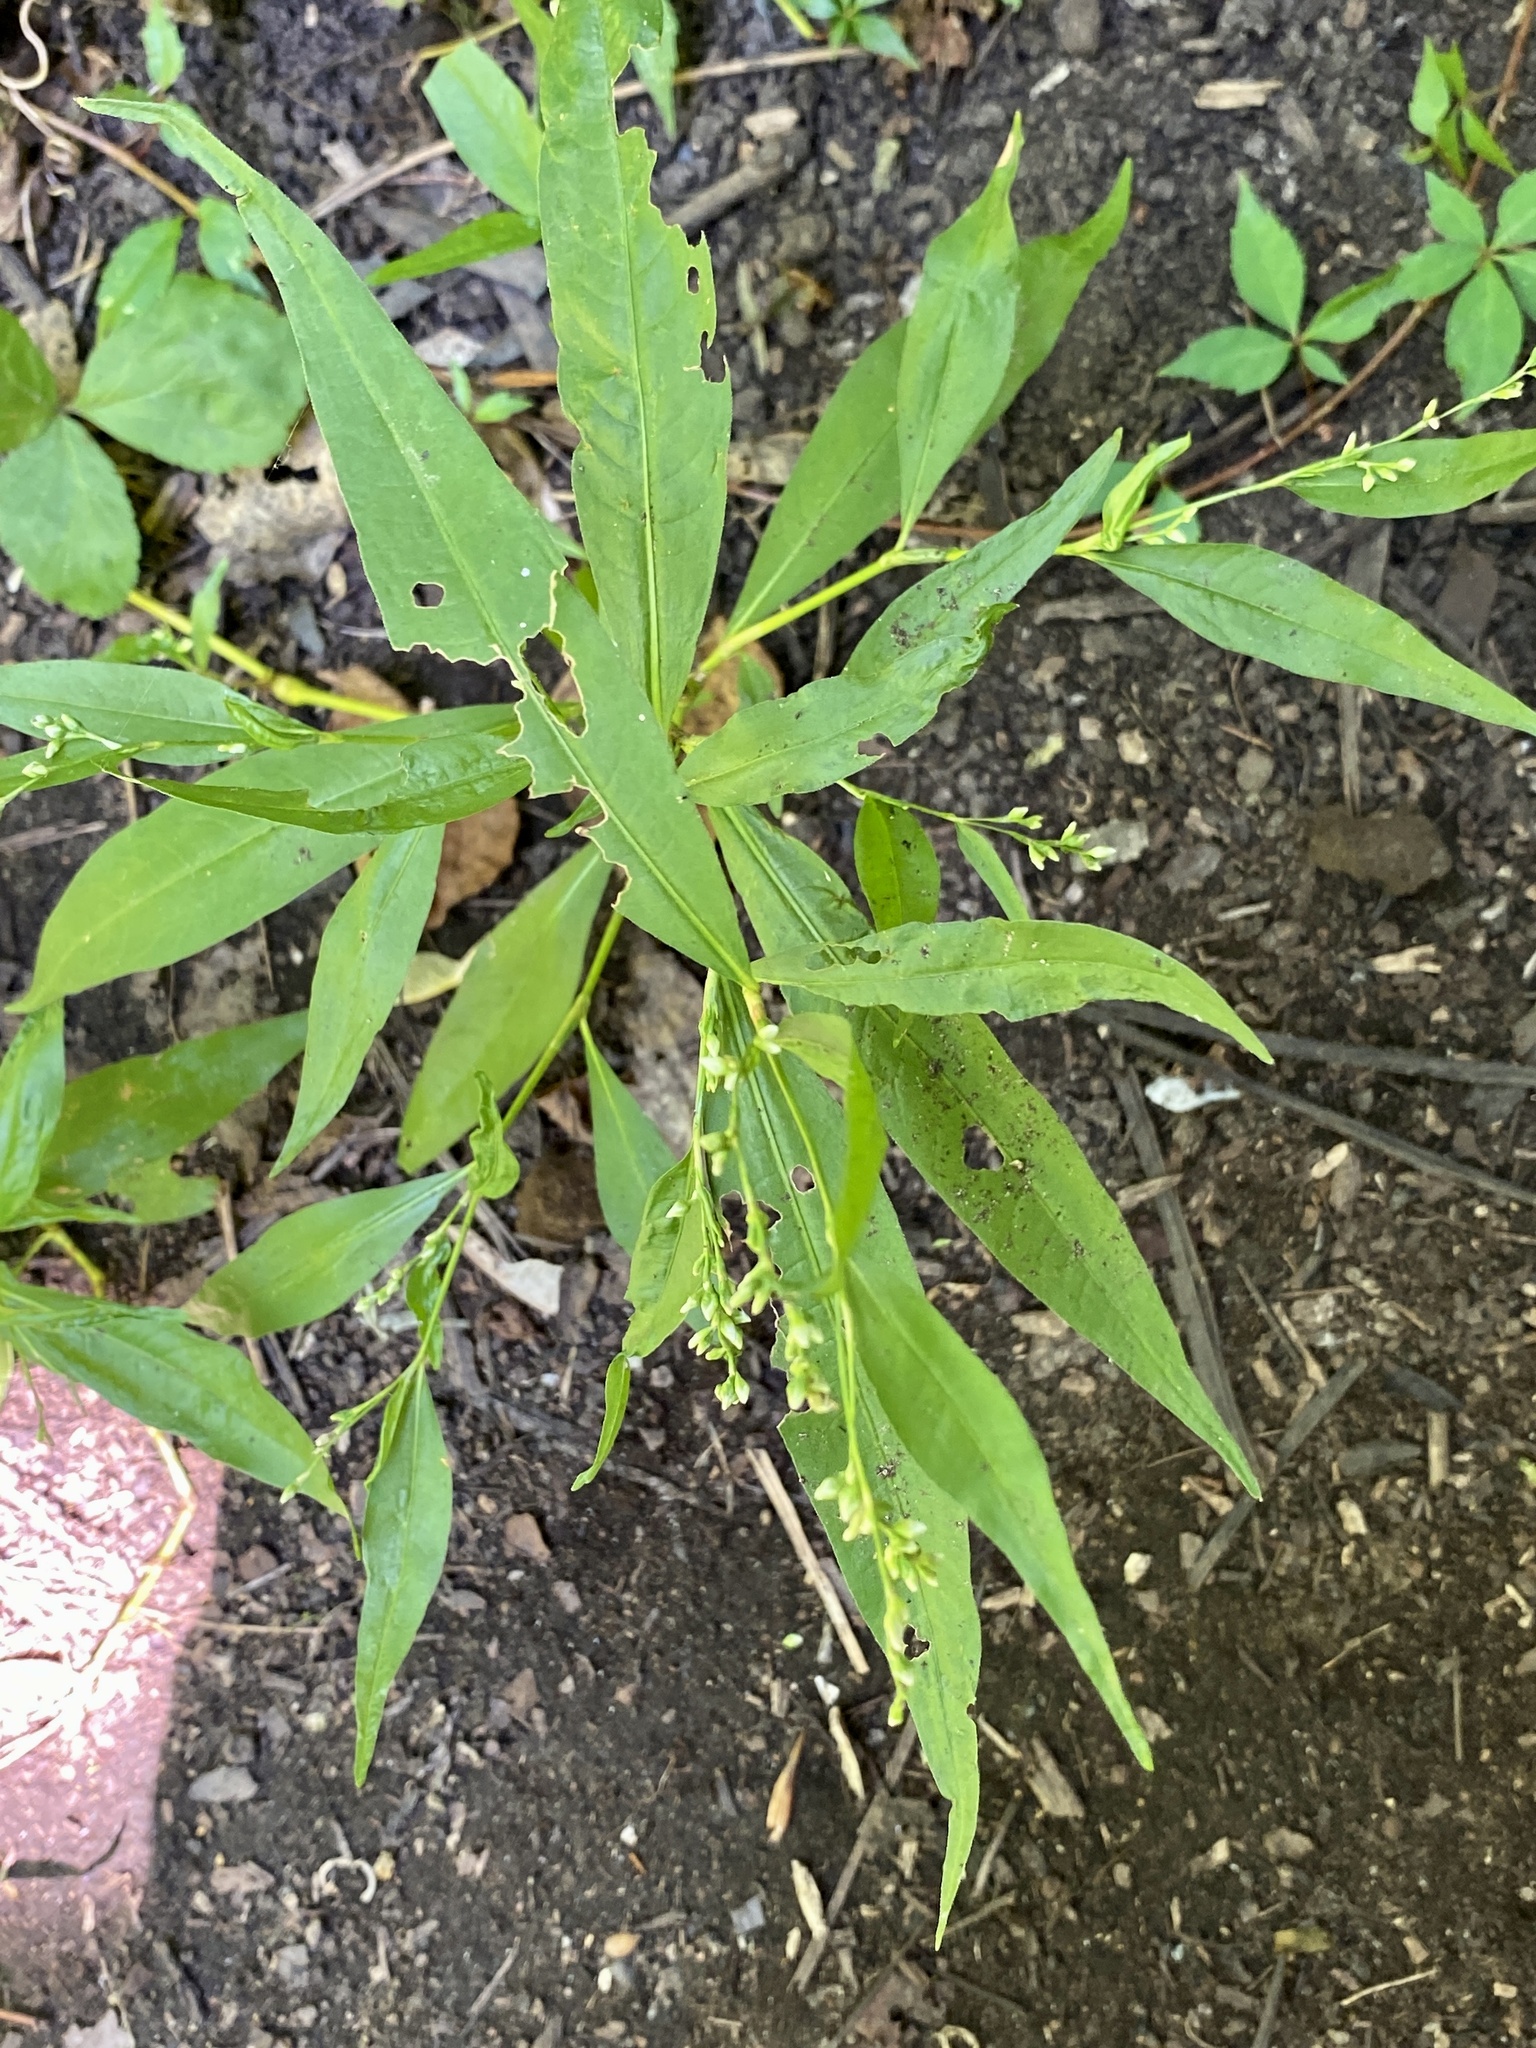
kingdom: Plantae
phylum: Tracheophyta
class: Magnoliopsida
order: Caryophyllales
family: Polygonaceae
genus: Persicaria
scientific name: Persicaria punctata
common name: Dotted smartweed
